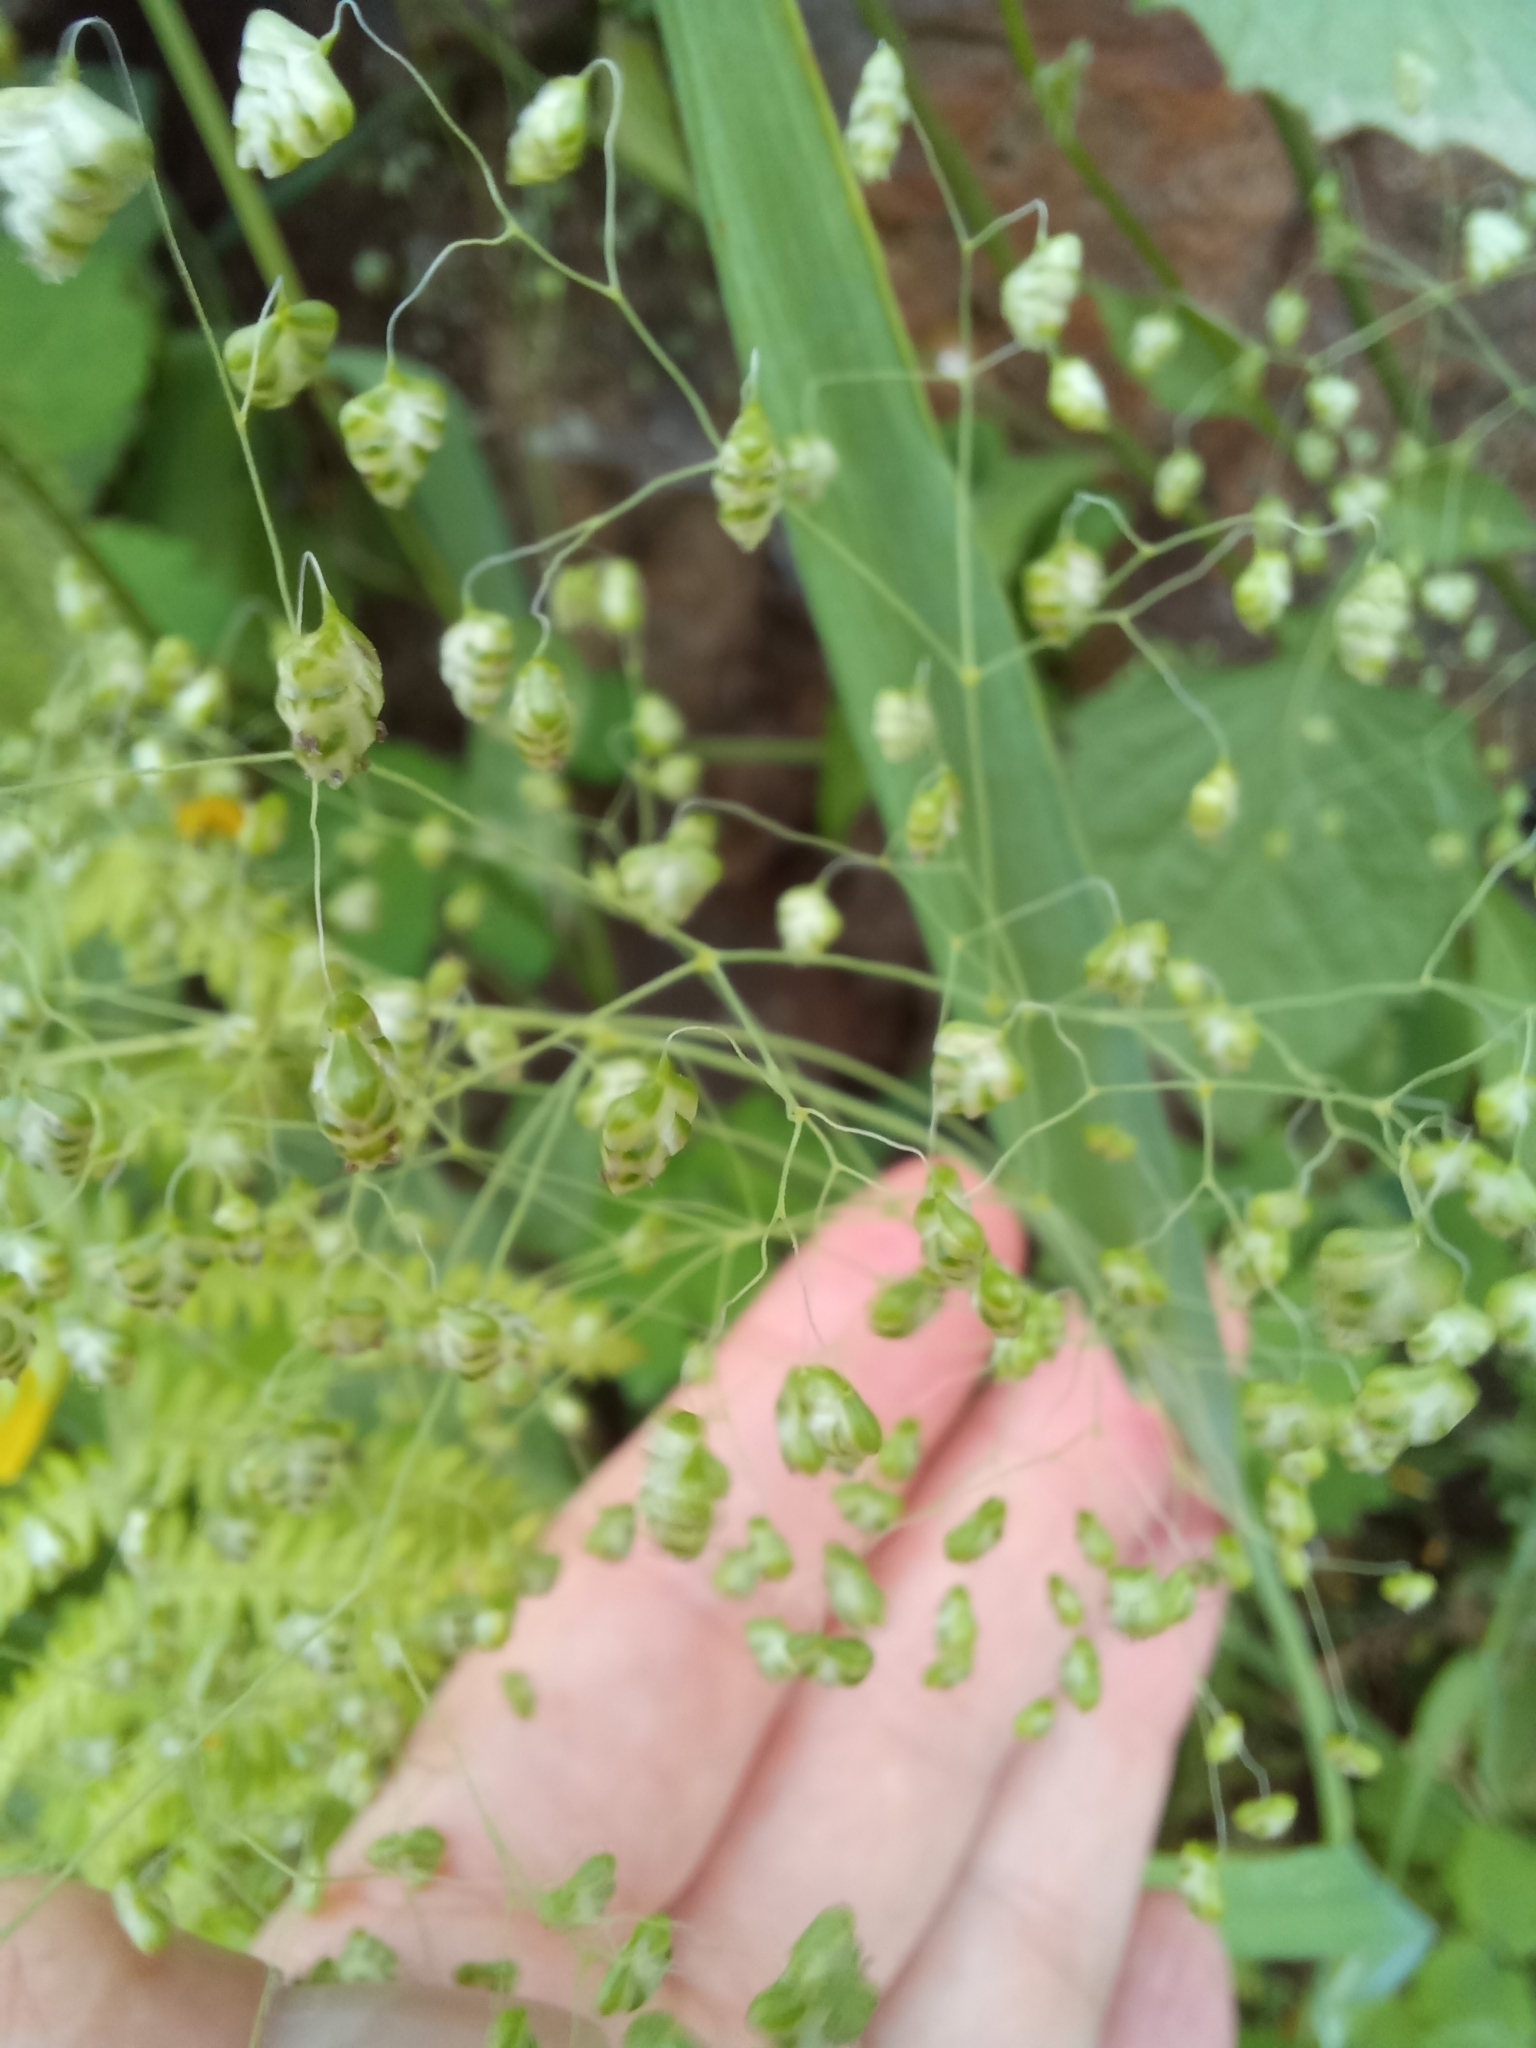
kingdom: Plantae
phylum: Tracheophyta
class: Liliopsida
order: Poales
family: Poaceae
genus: Briza
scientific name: Briza minor
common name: Lesser quaking-grass
